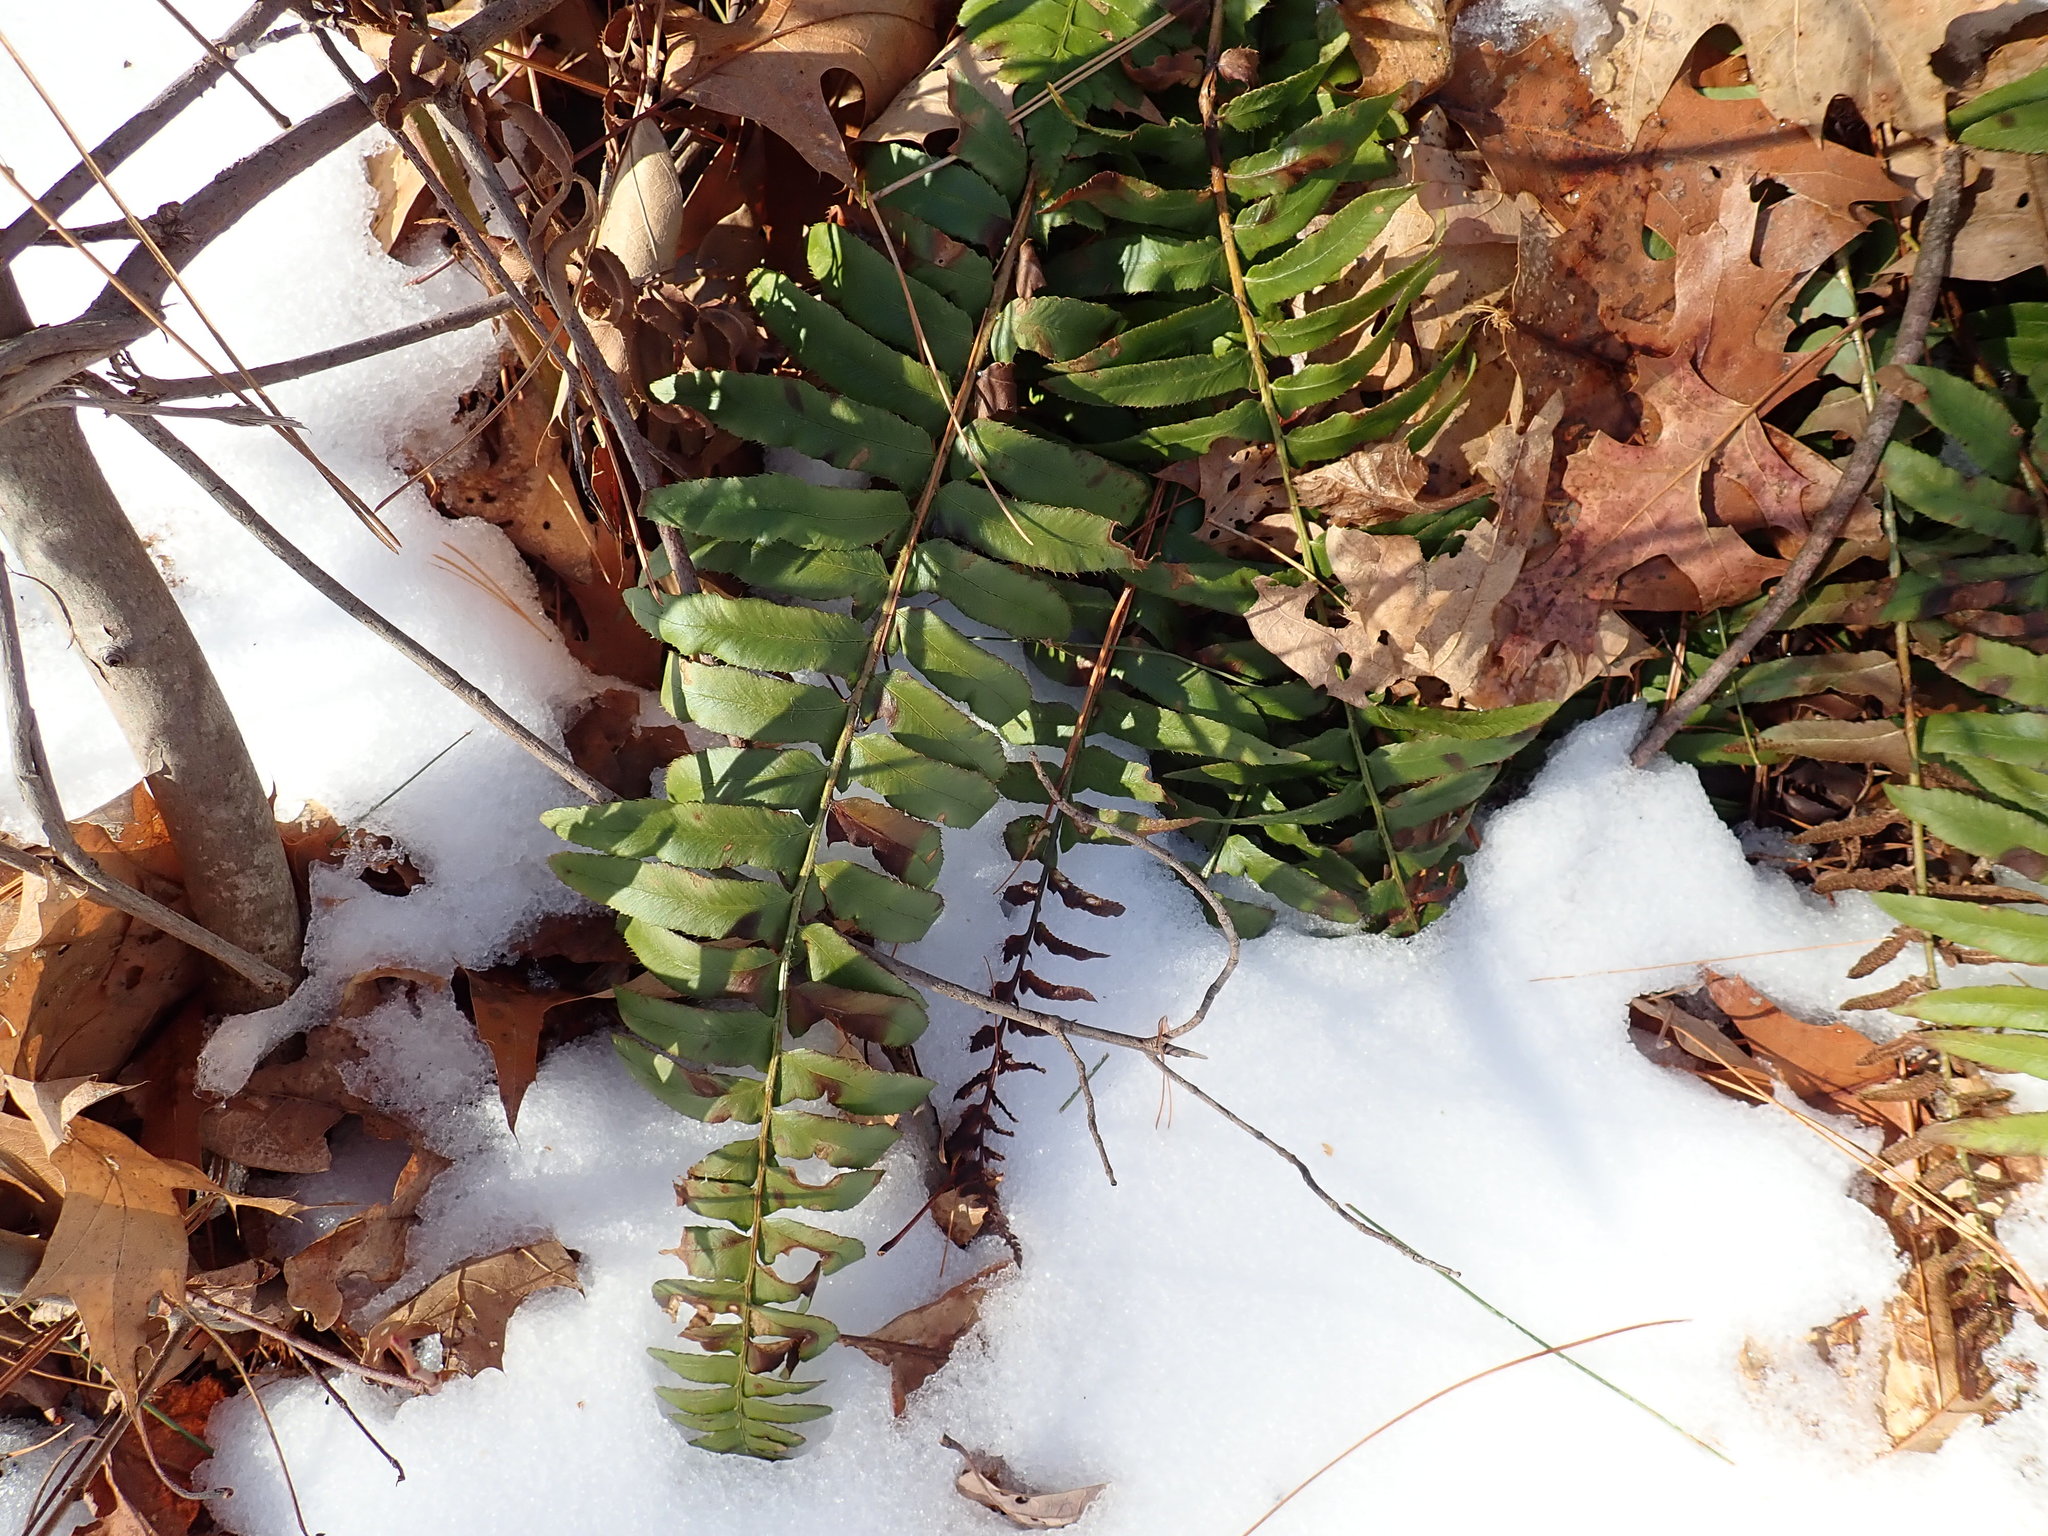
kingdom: Plantae
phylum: Tracheophyta
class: Polypodiopsida
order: Polypodiales
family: Dryopteridaceae
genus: Polystichum
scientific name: Polystichum acrostichoides
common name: Christmas fern
